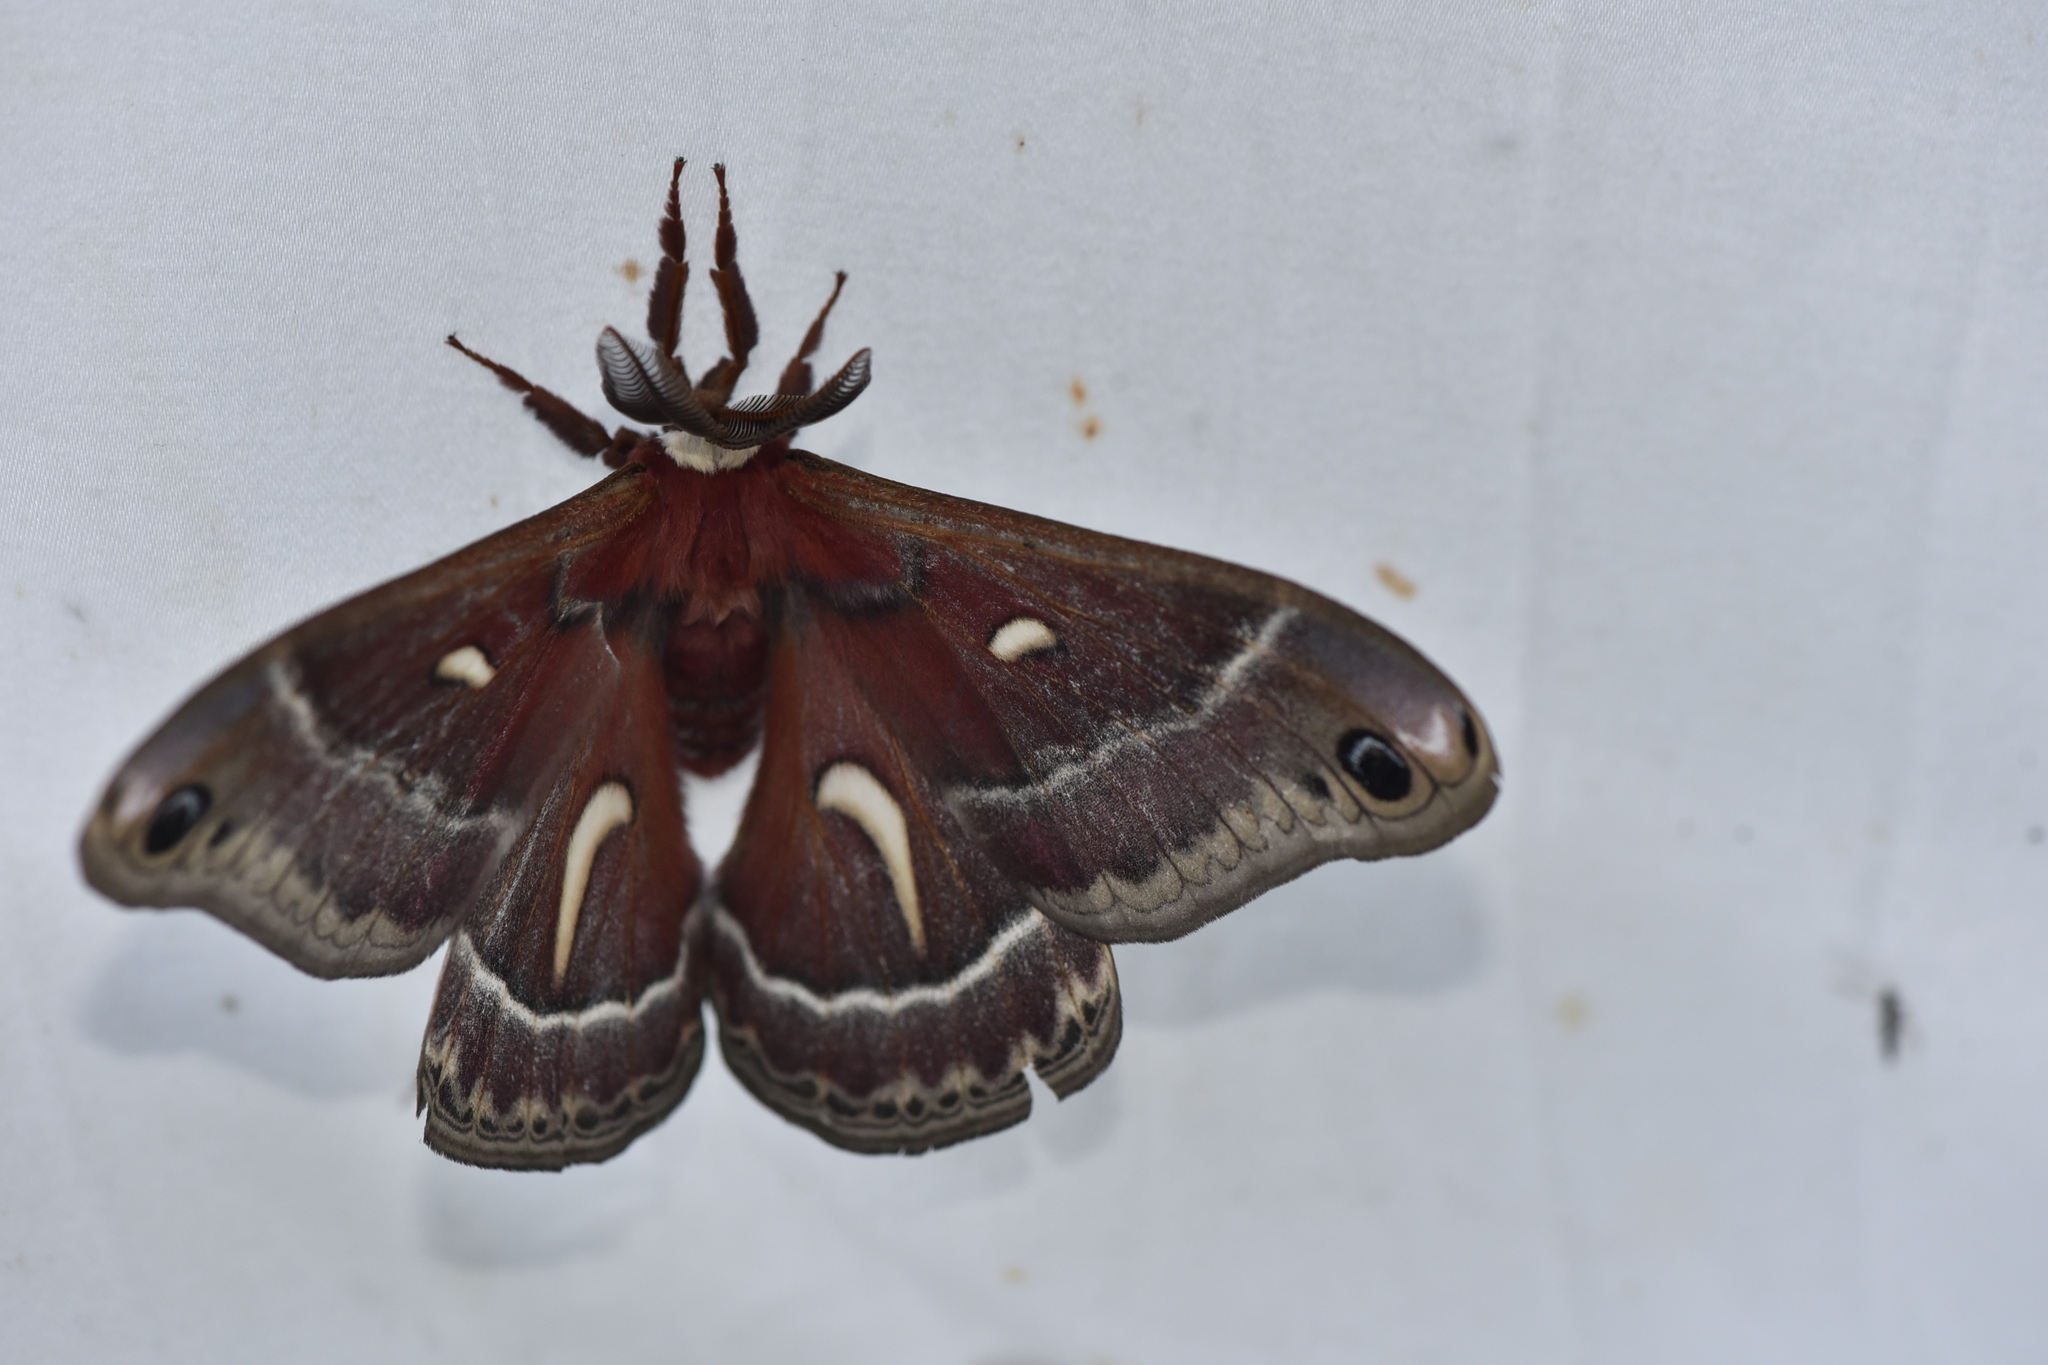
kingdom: Animalia
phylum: Arthropoda
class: Insecta
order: Lepidoptera
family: Saturniidae
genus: Hyalophora
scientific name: Hyalophora euryalus
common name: Ceanothus silkmoth
